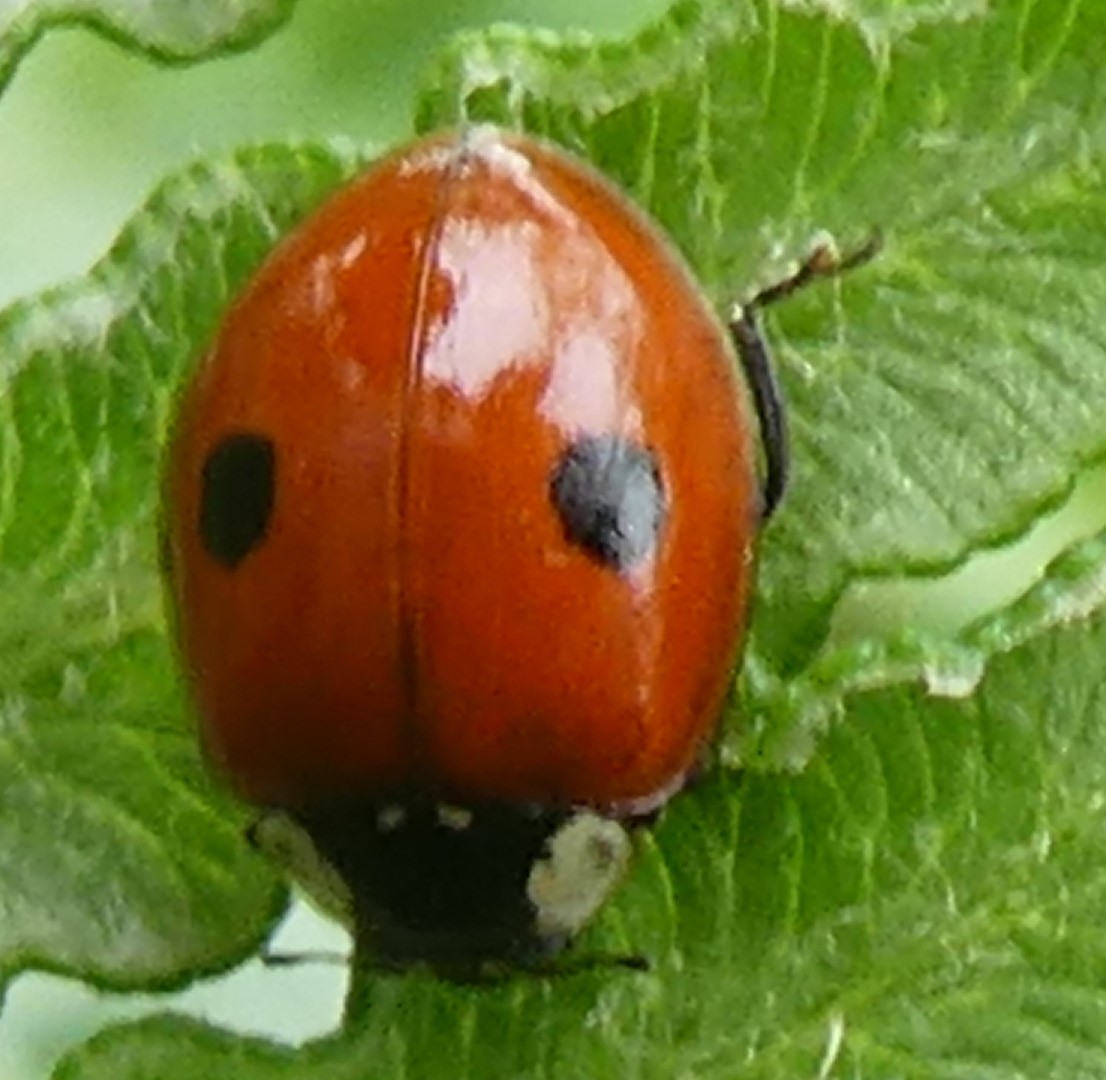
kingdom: Animalia
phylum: Arthropoda
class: Insecta
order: Coleoptera
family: Coccinellidae
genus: Adalia
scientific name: Adalia bipunctata
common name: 2-spot ladybird
